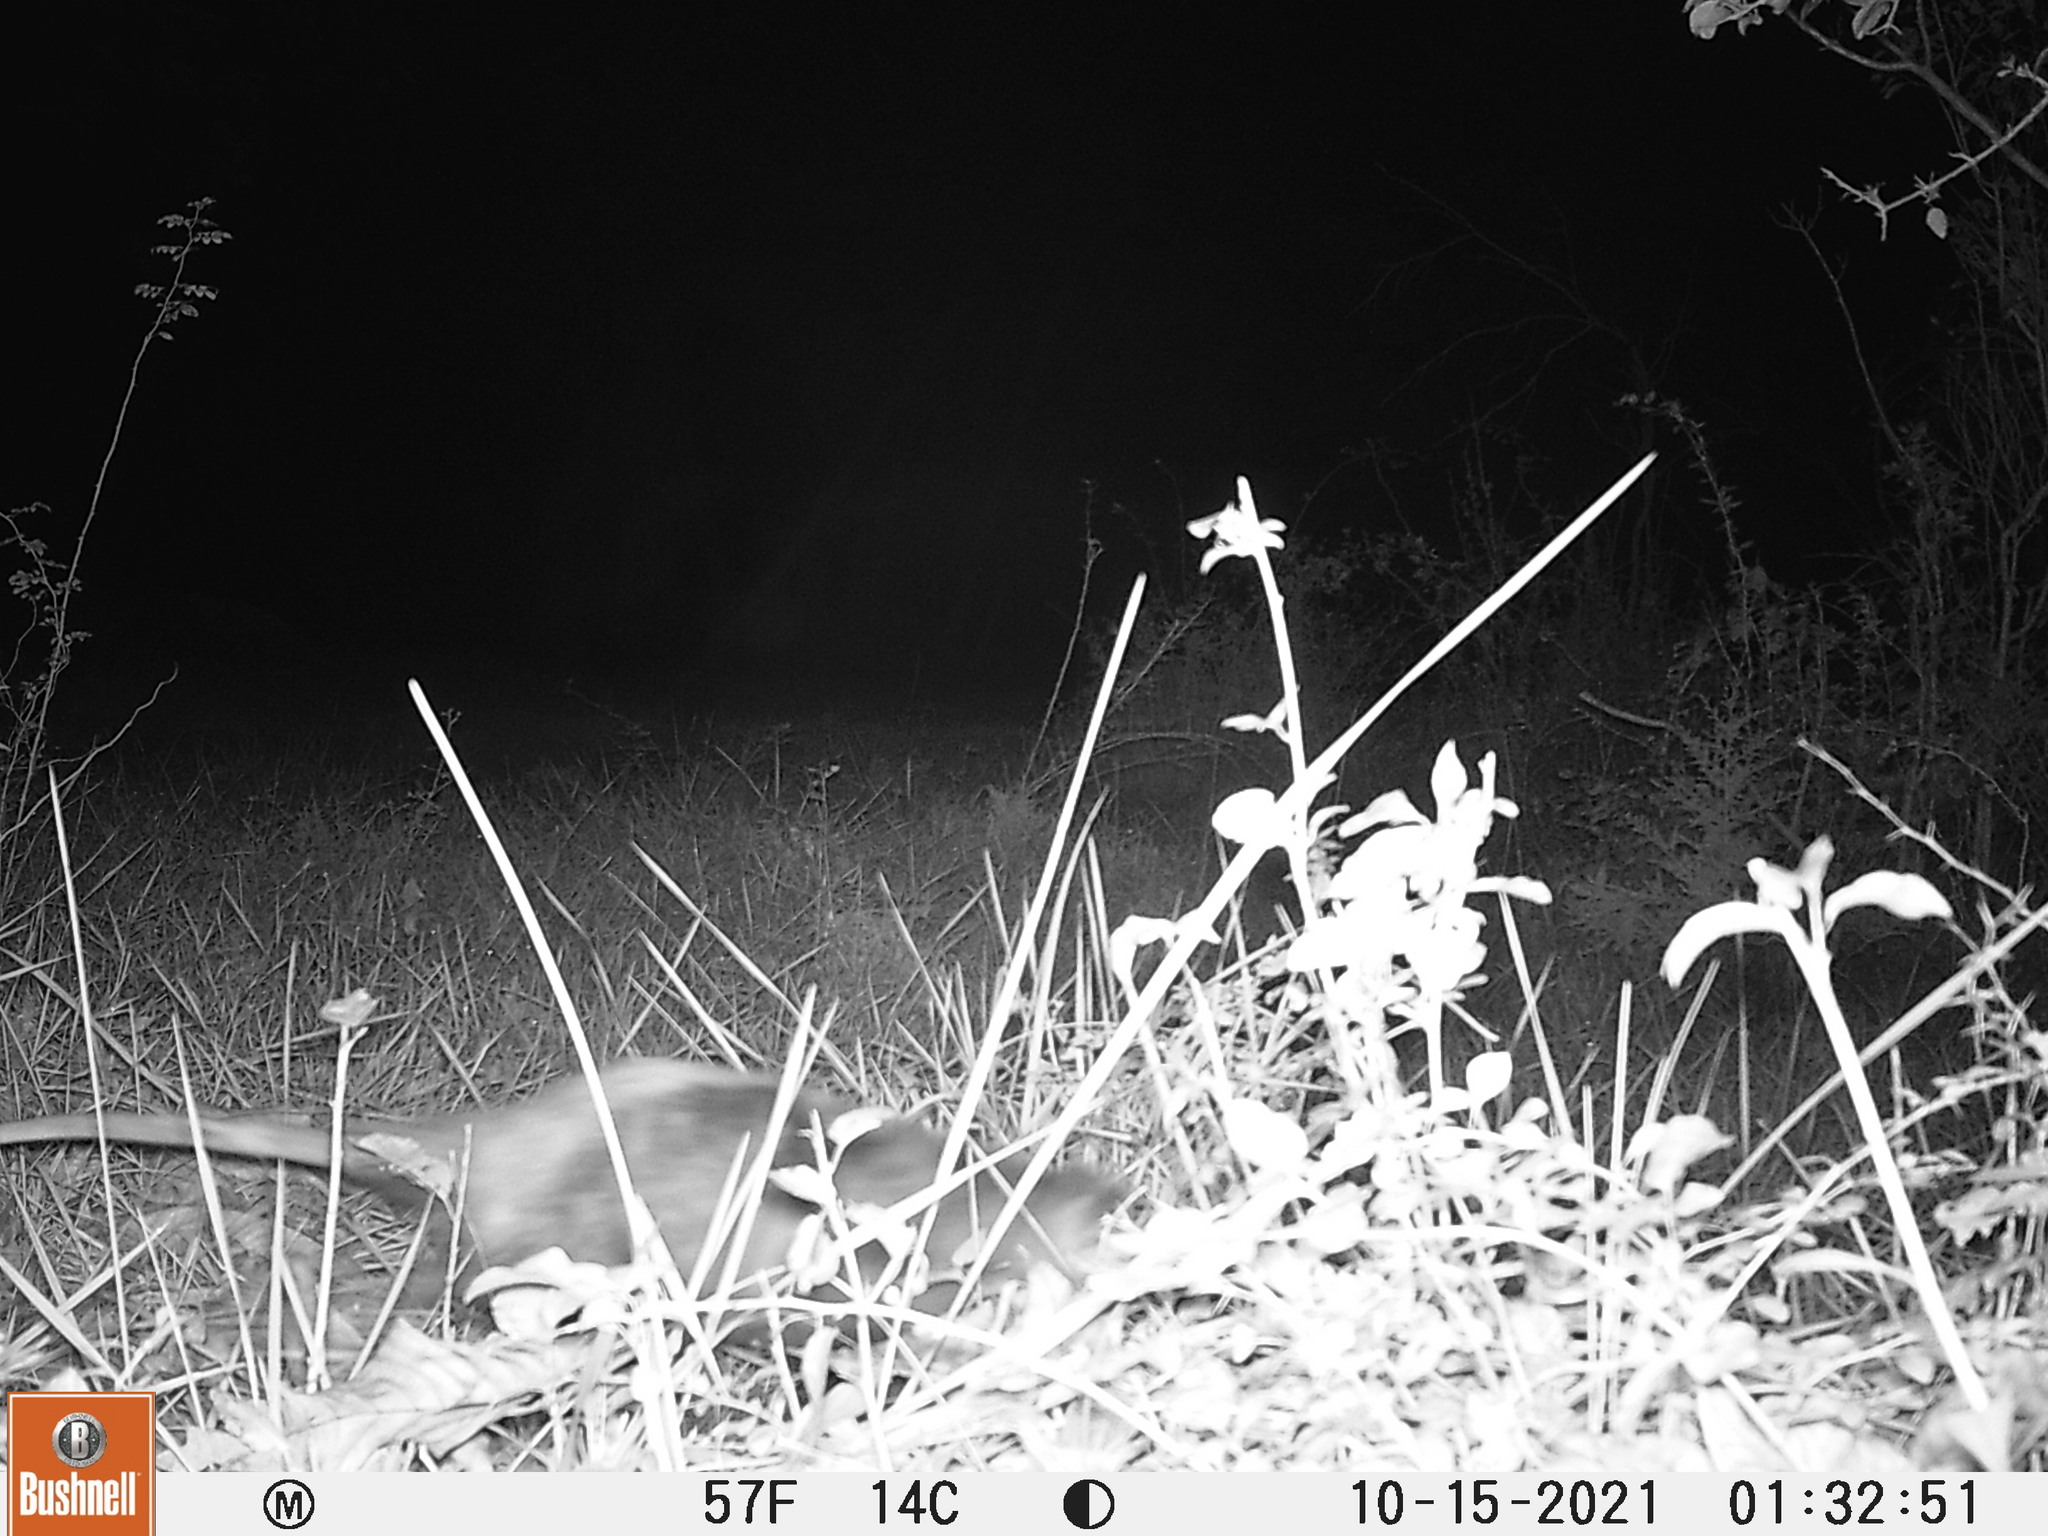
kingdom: Animalia
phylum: Chordata
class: Mammalia
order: Didelphimorphia
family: Didelphidae
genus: Didelphis
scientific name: Didelphis virginiana
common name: Virginia opossum
